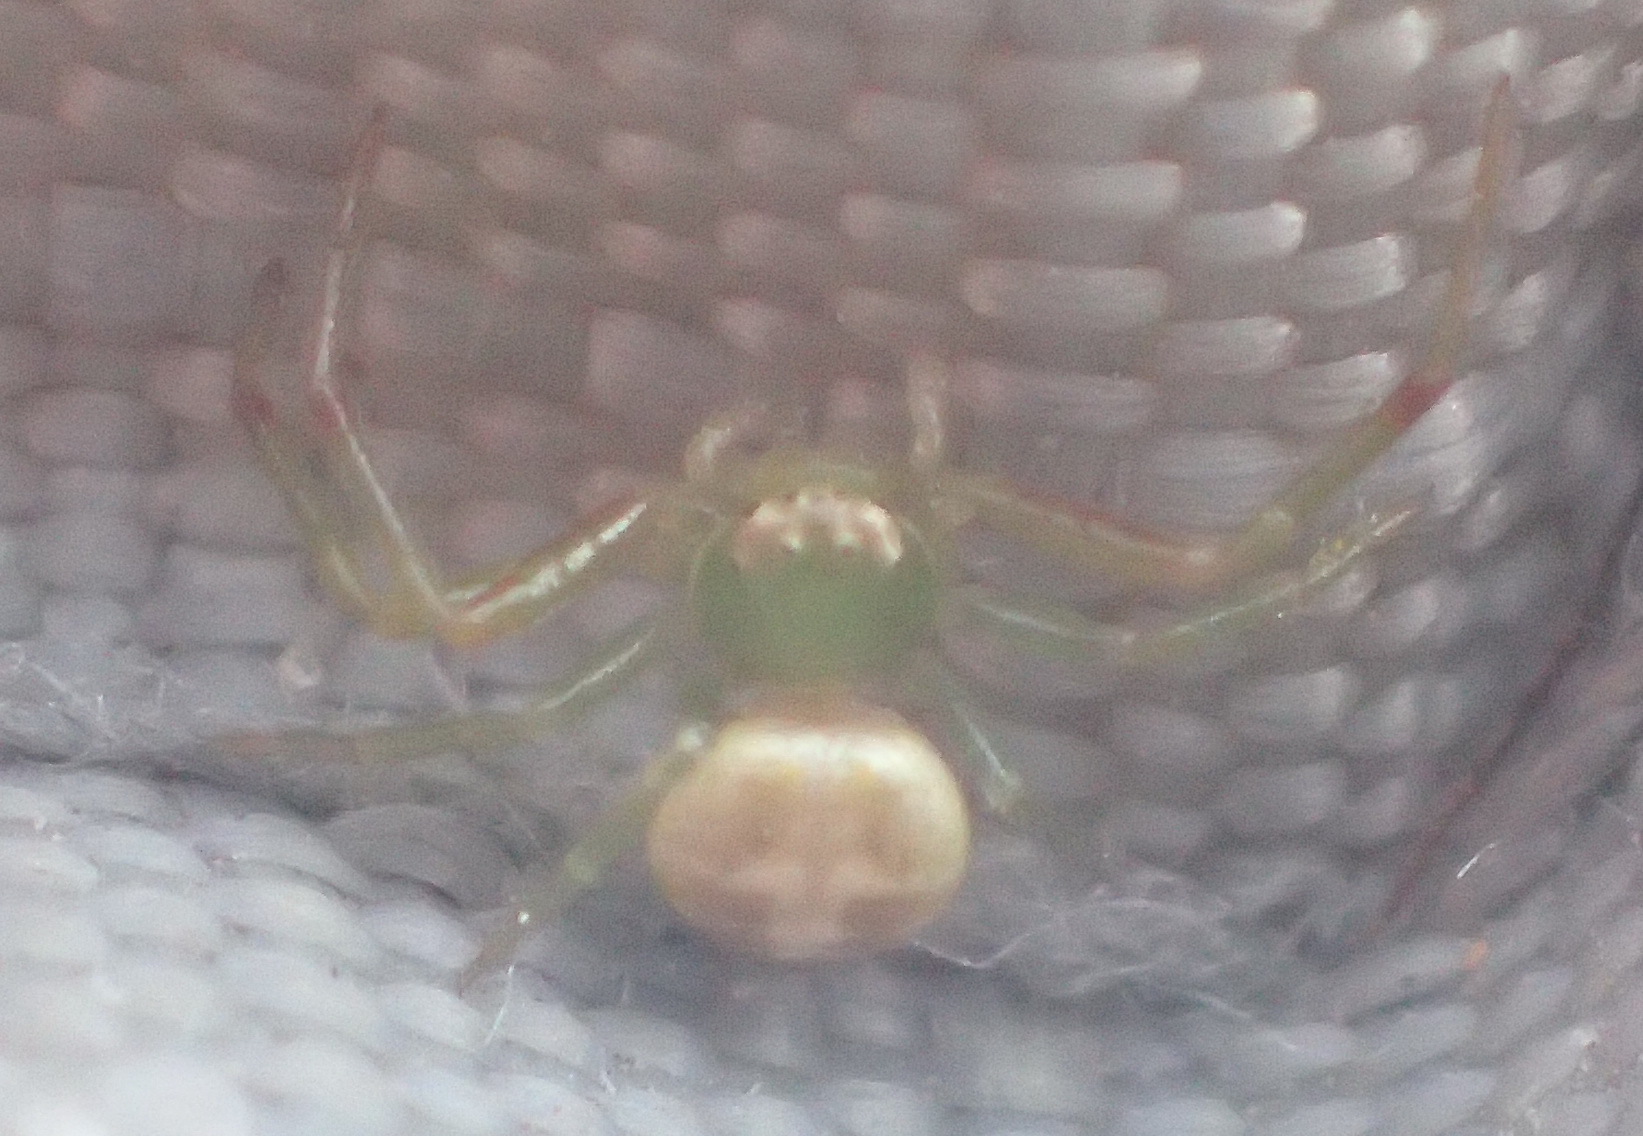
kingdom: Animalia
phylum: Arthropoda
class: Arachnida
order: Araneae
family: Thomisidae
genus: Synema
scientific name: Synema imitatrix
